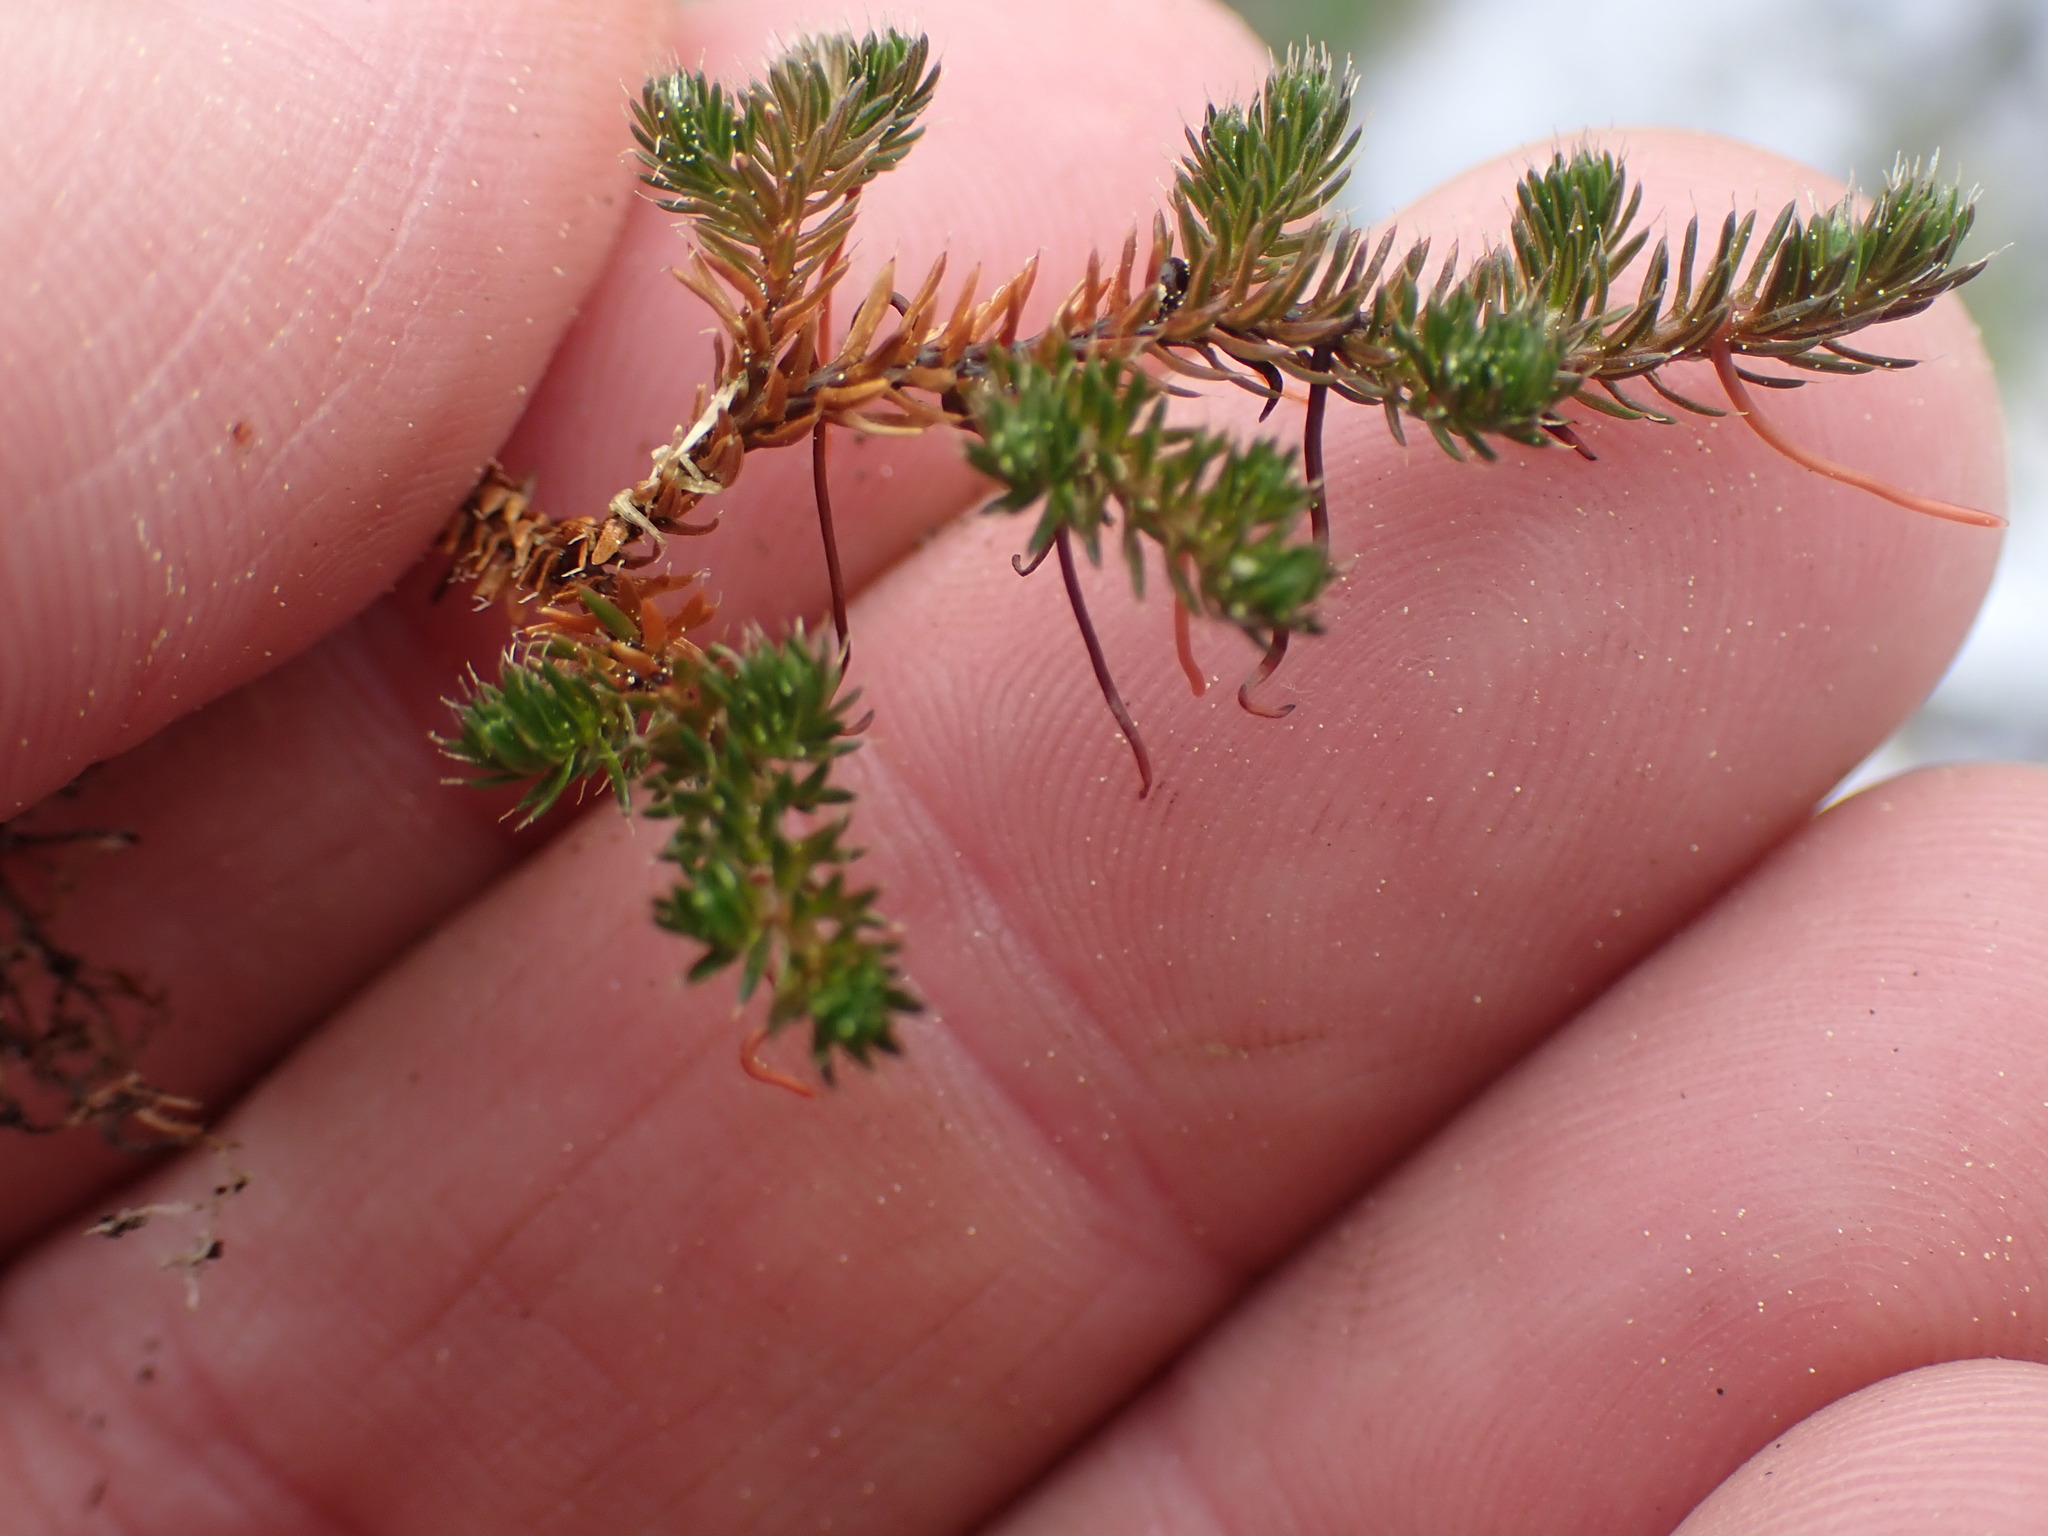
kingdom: Plantae
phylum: Tracheophyta
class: Lycopodiopsida
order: Selaginellales
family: Selaginellaceae
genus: Selaginella
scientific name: Selaginella densa
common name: Mountain spike-moss
